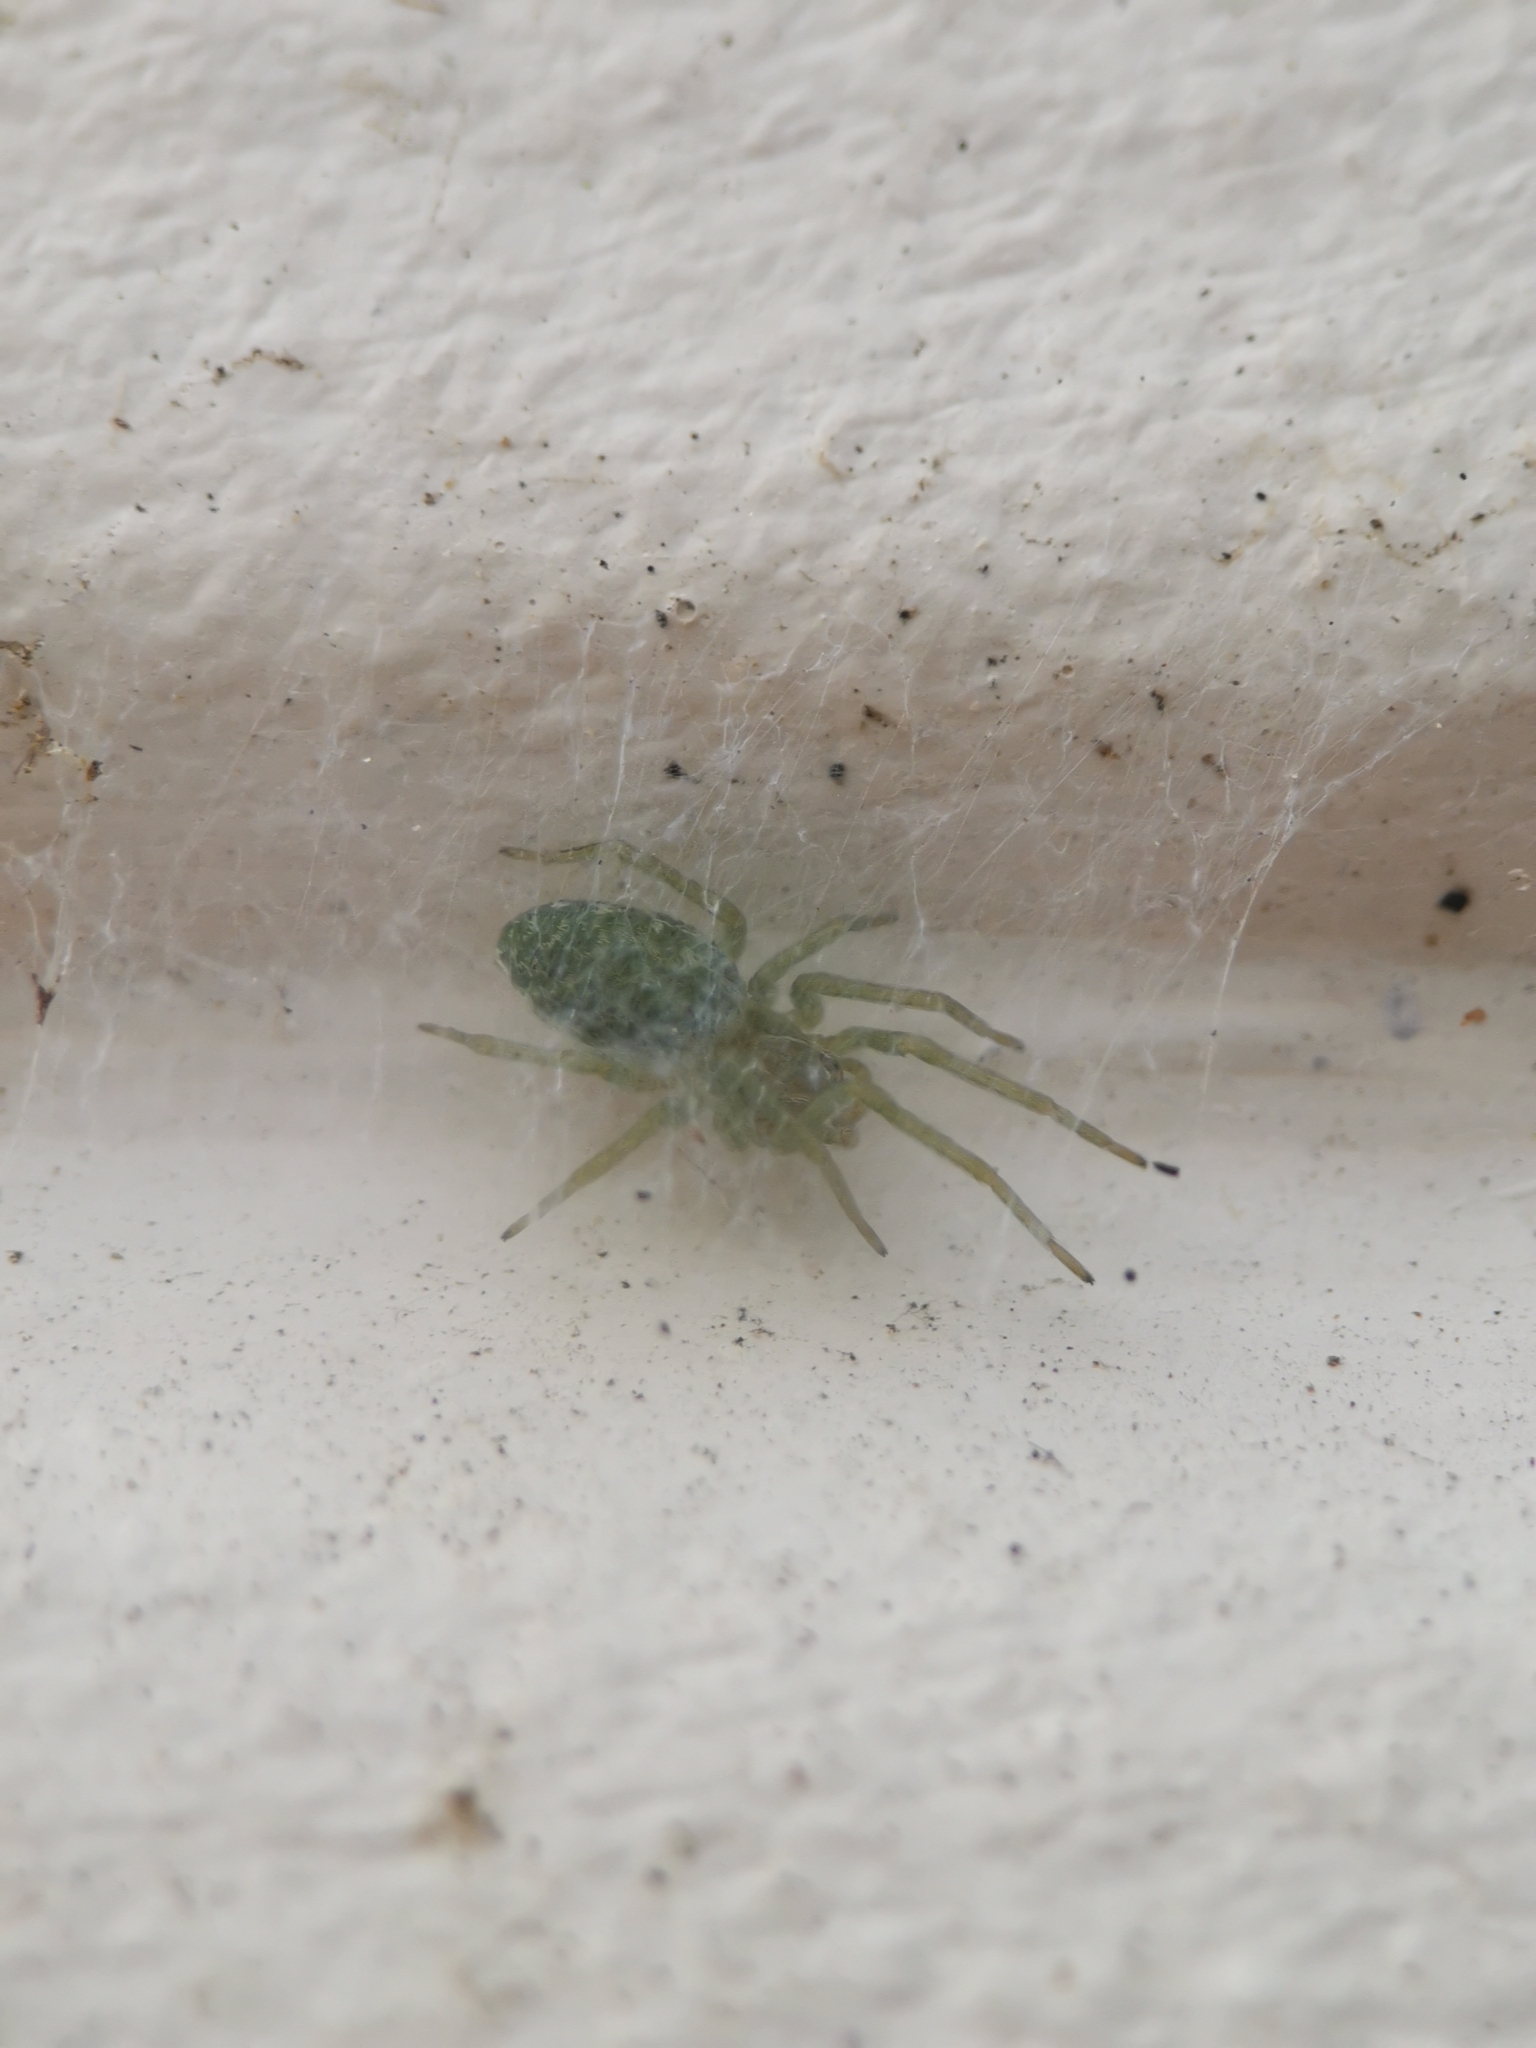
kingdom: Animalia
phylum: Arthropoda
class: Arachnida
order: Araneae
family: Dictynidae
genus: Nigma
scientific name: Nigma walckenaeri
